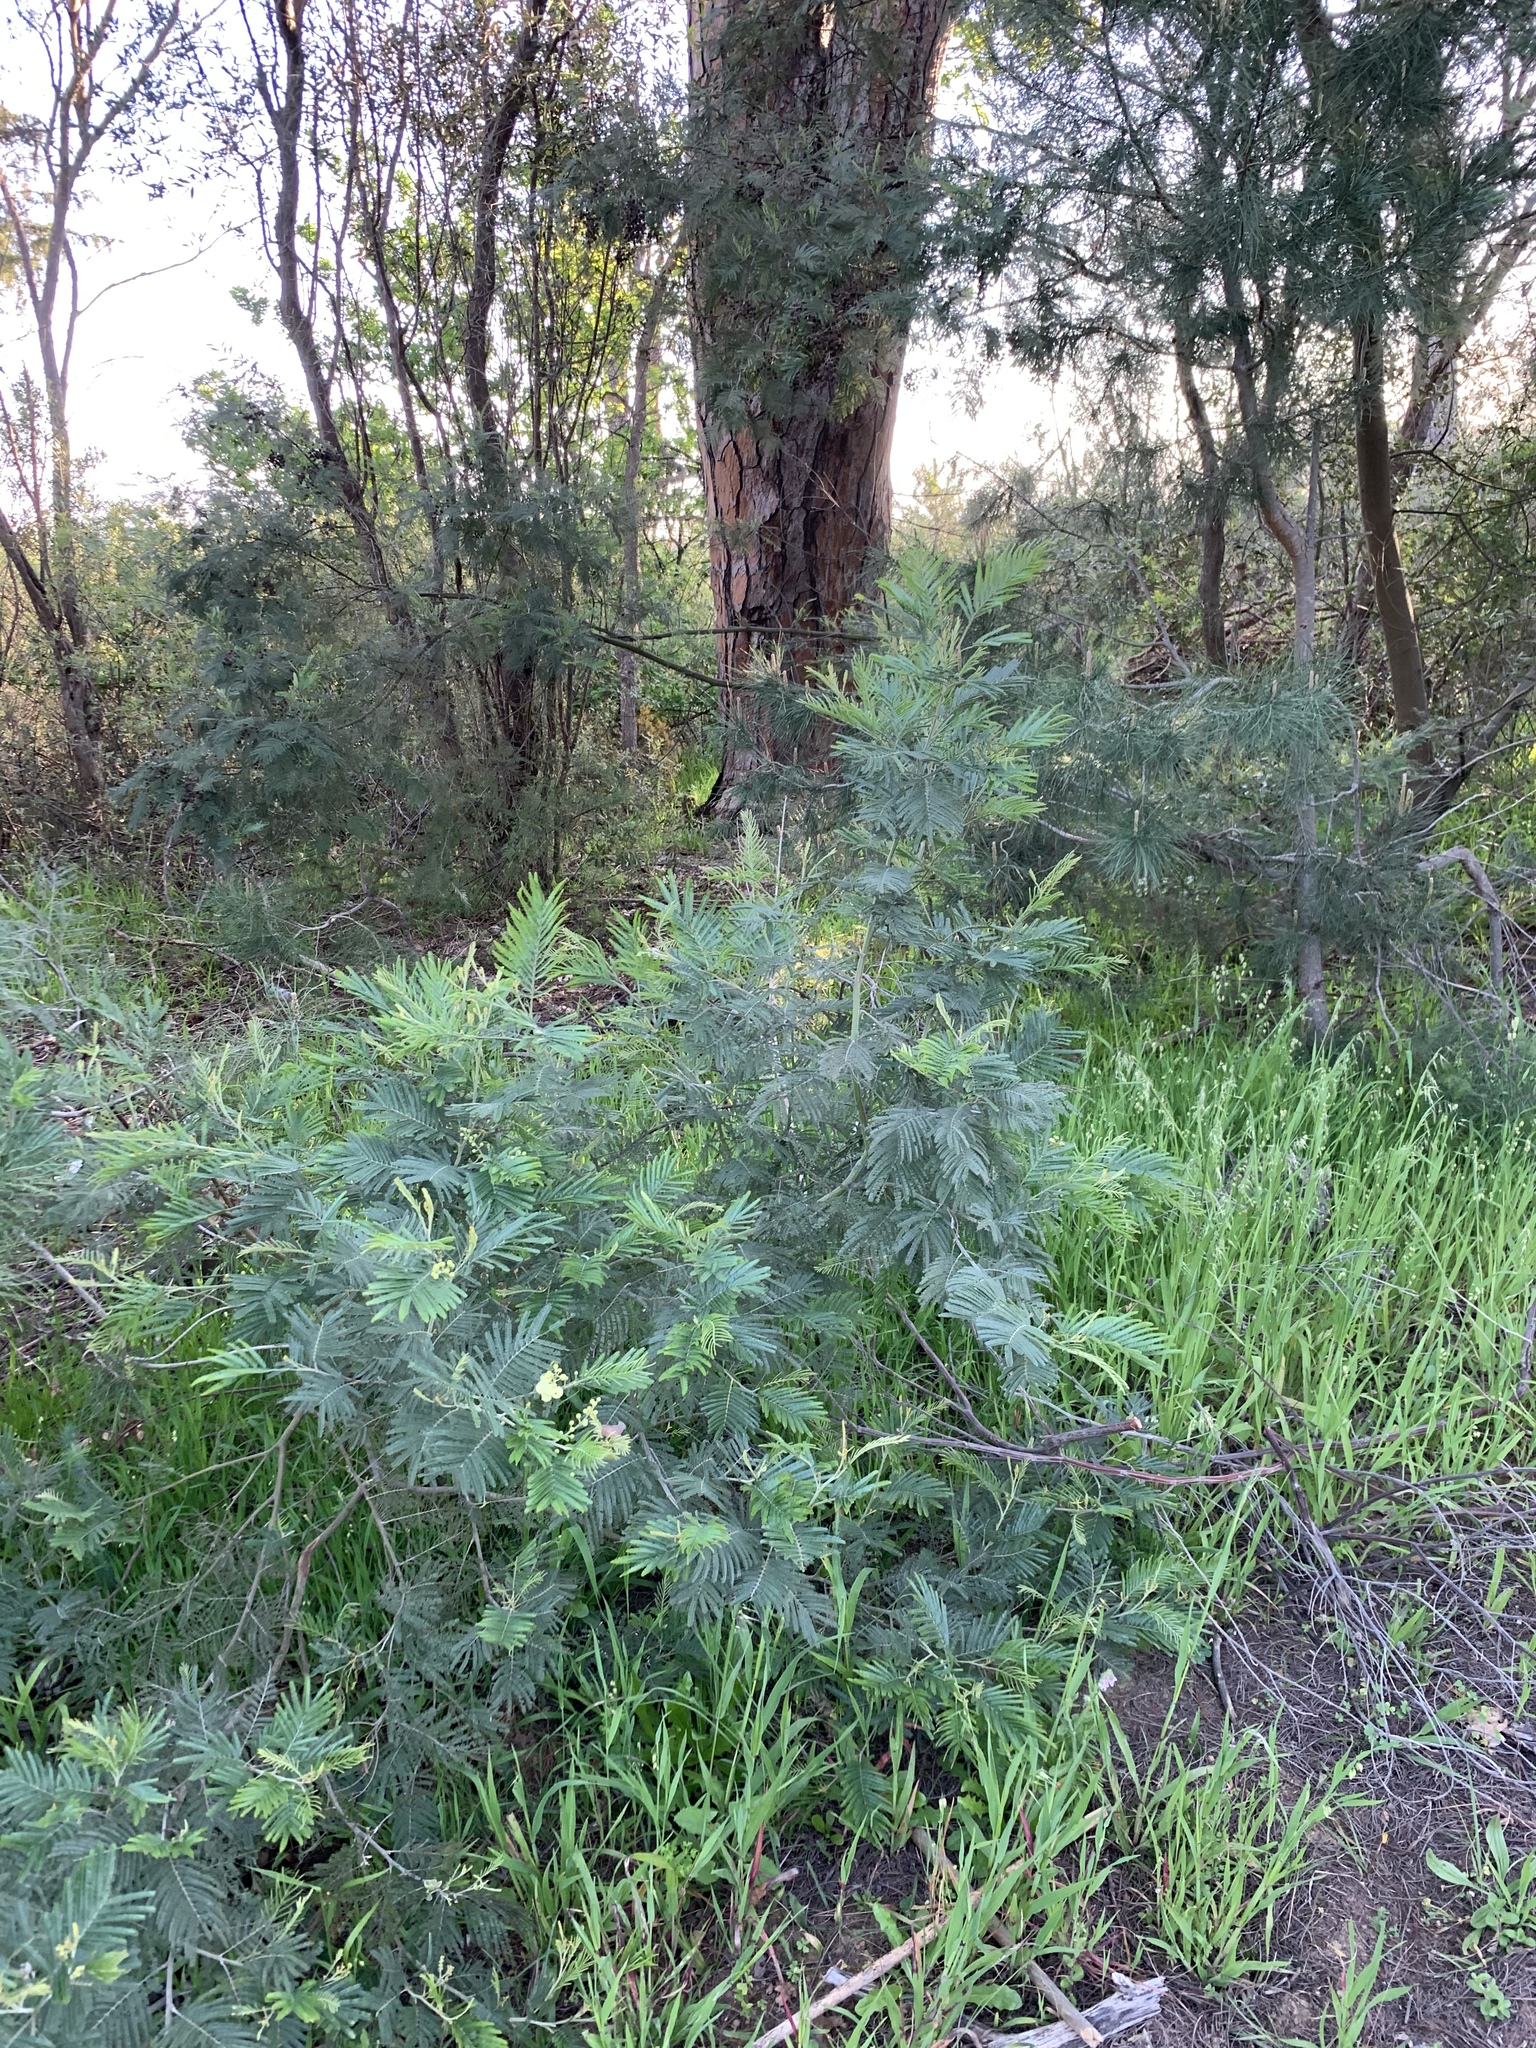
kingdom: Plantae
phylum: Tracheophyta
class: Magnoliopsida
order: Fabales
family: Fabaceae
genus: Acacia
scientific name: Acacia mearnsii
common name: Black wattle
